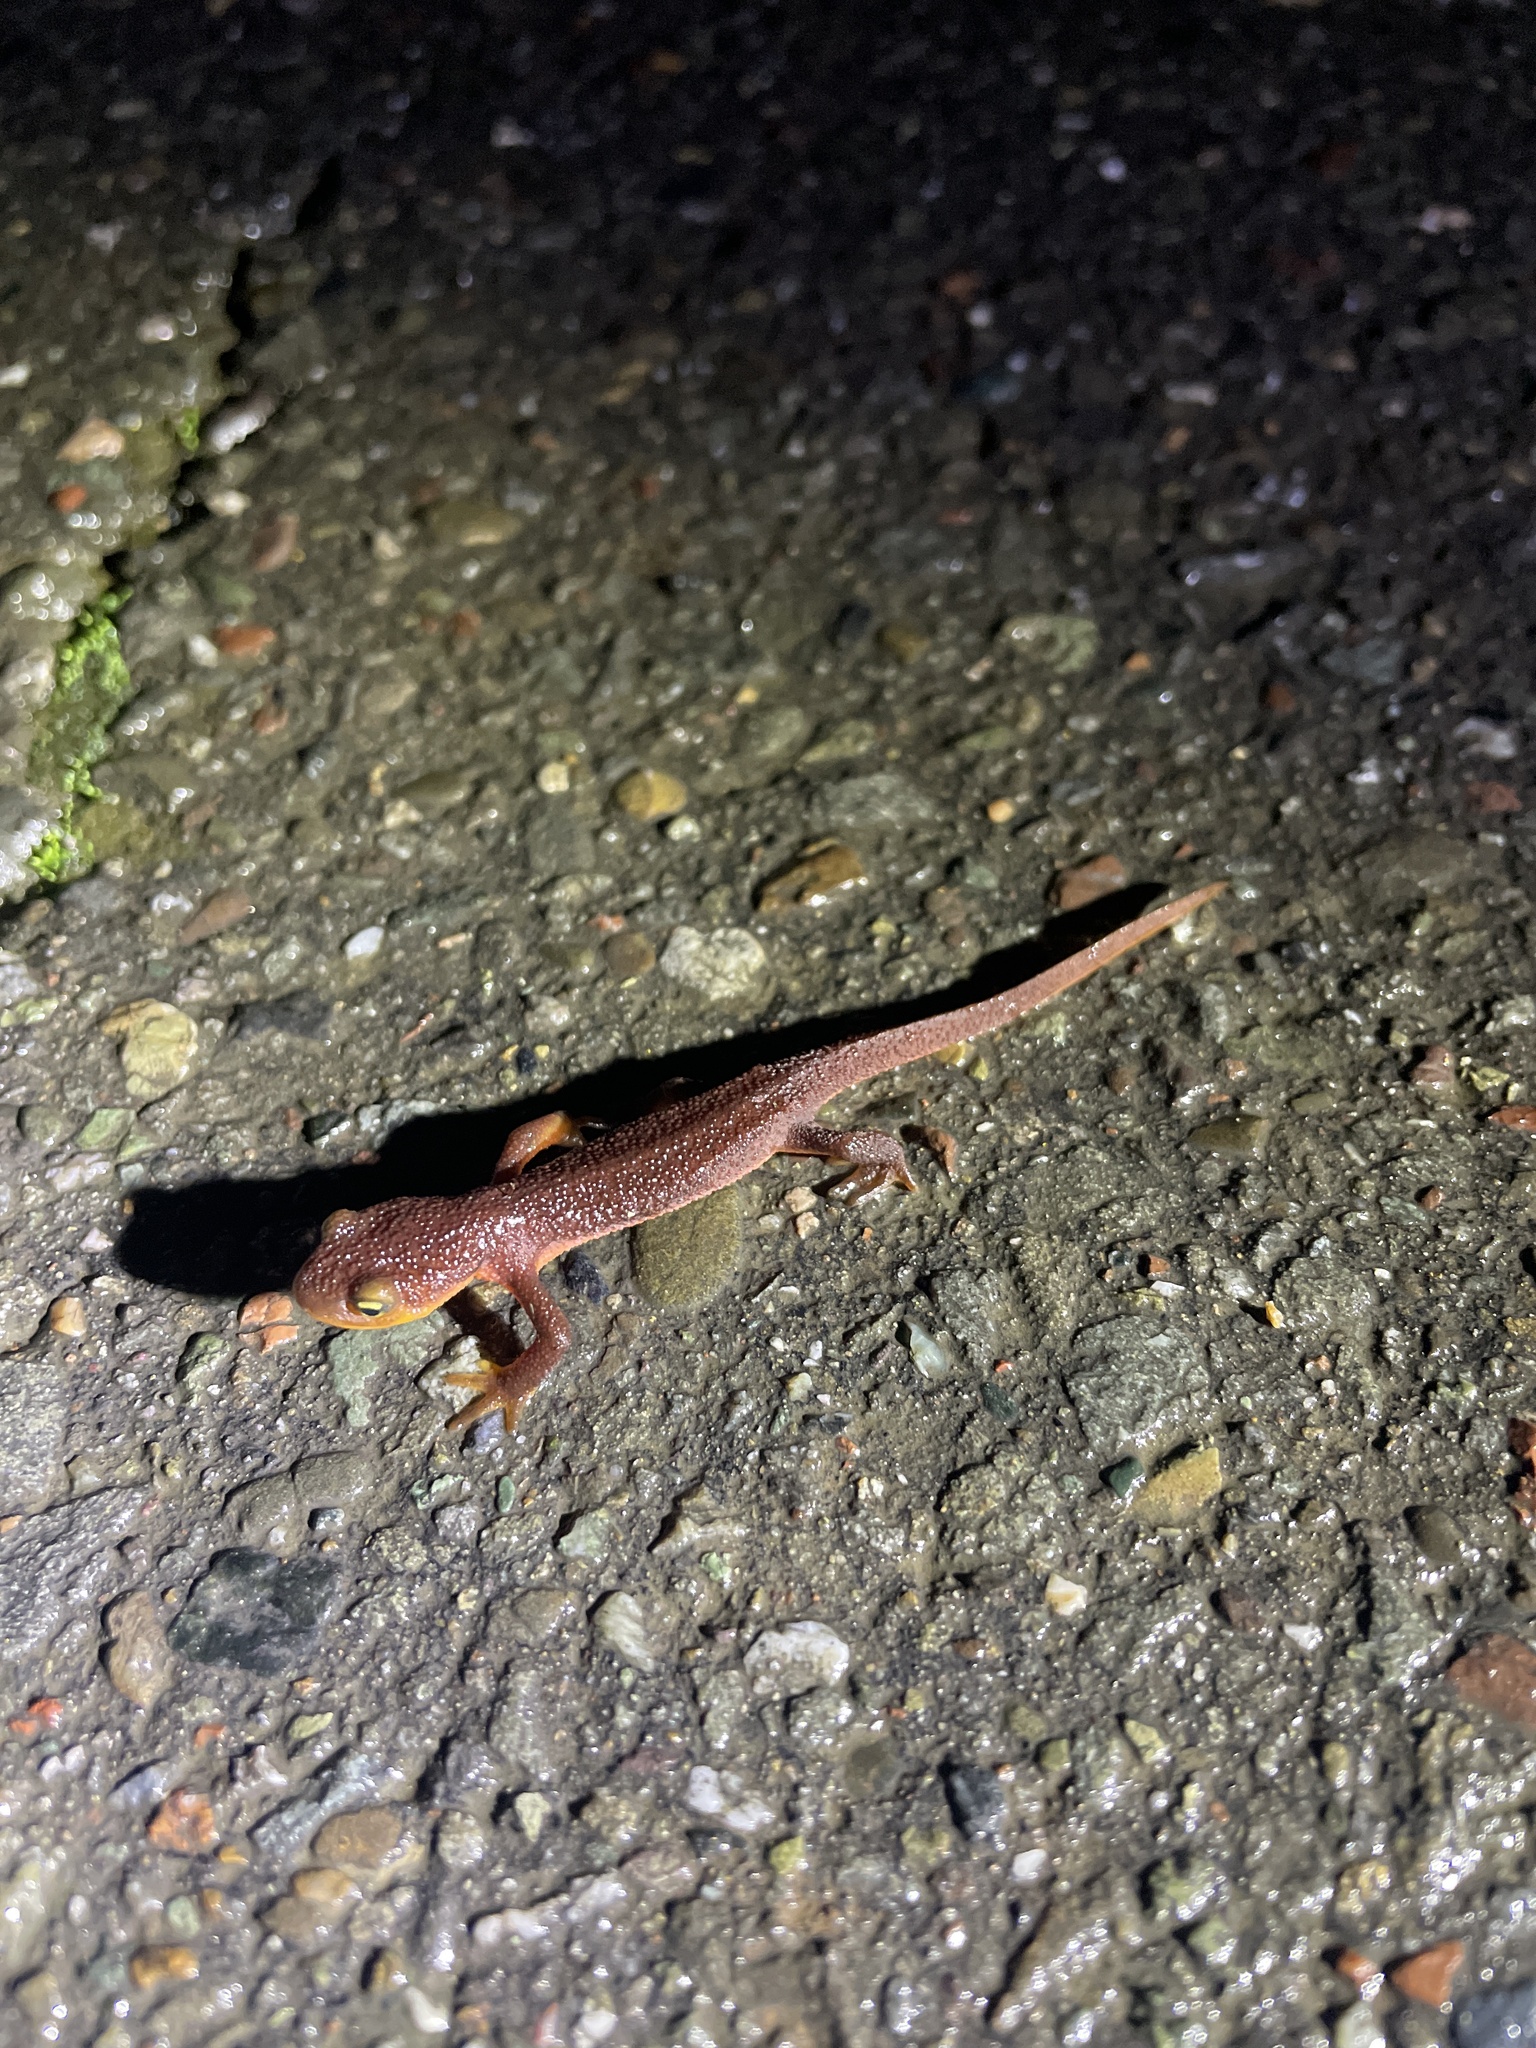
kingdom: Animalia
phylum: Chordata
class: Amphibia
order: Caudata
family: Salamandridae
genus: Taricha
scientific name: Taricha torosa
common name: California newt
